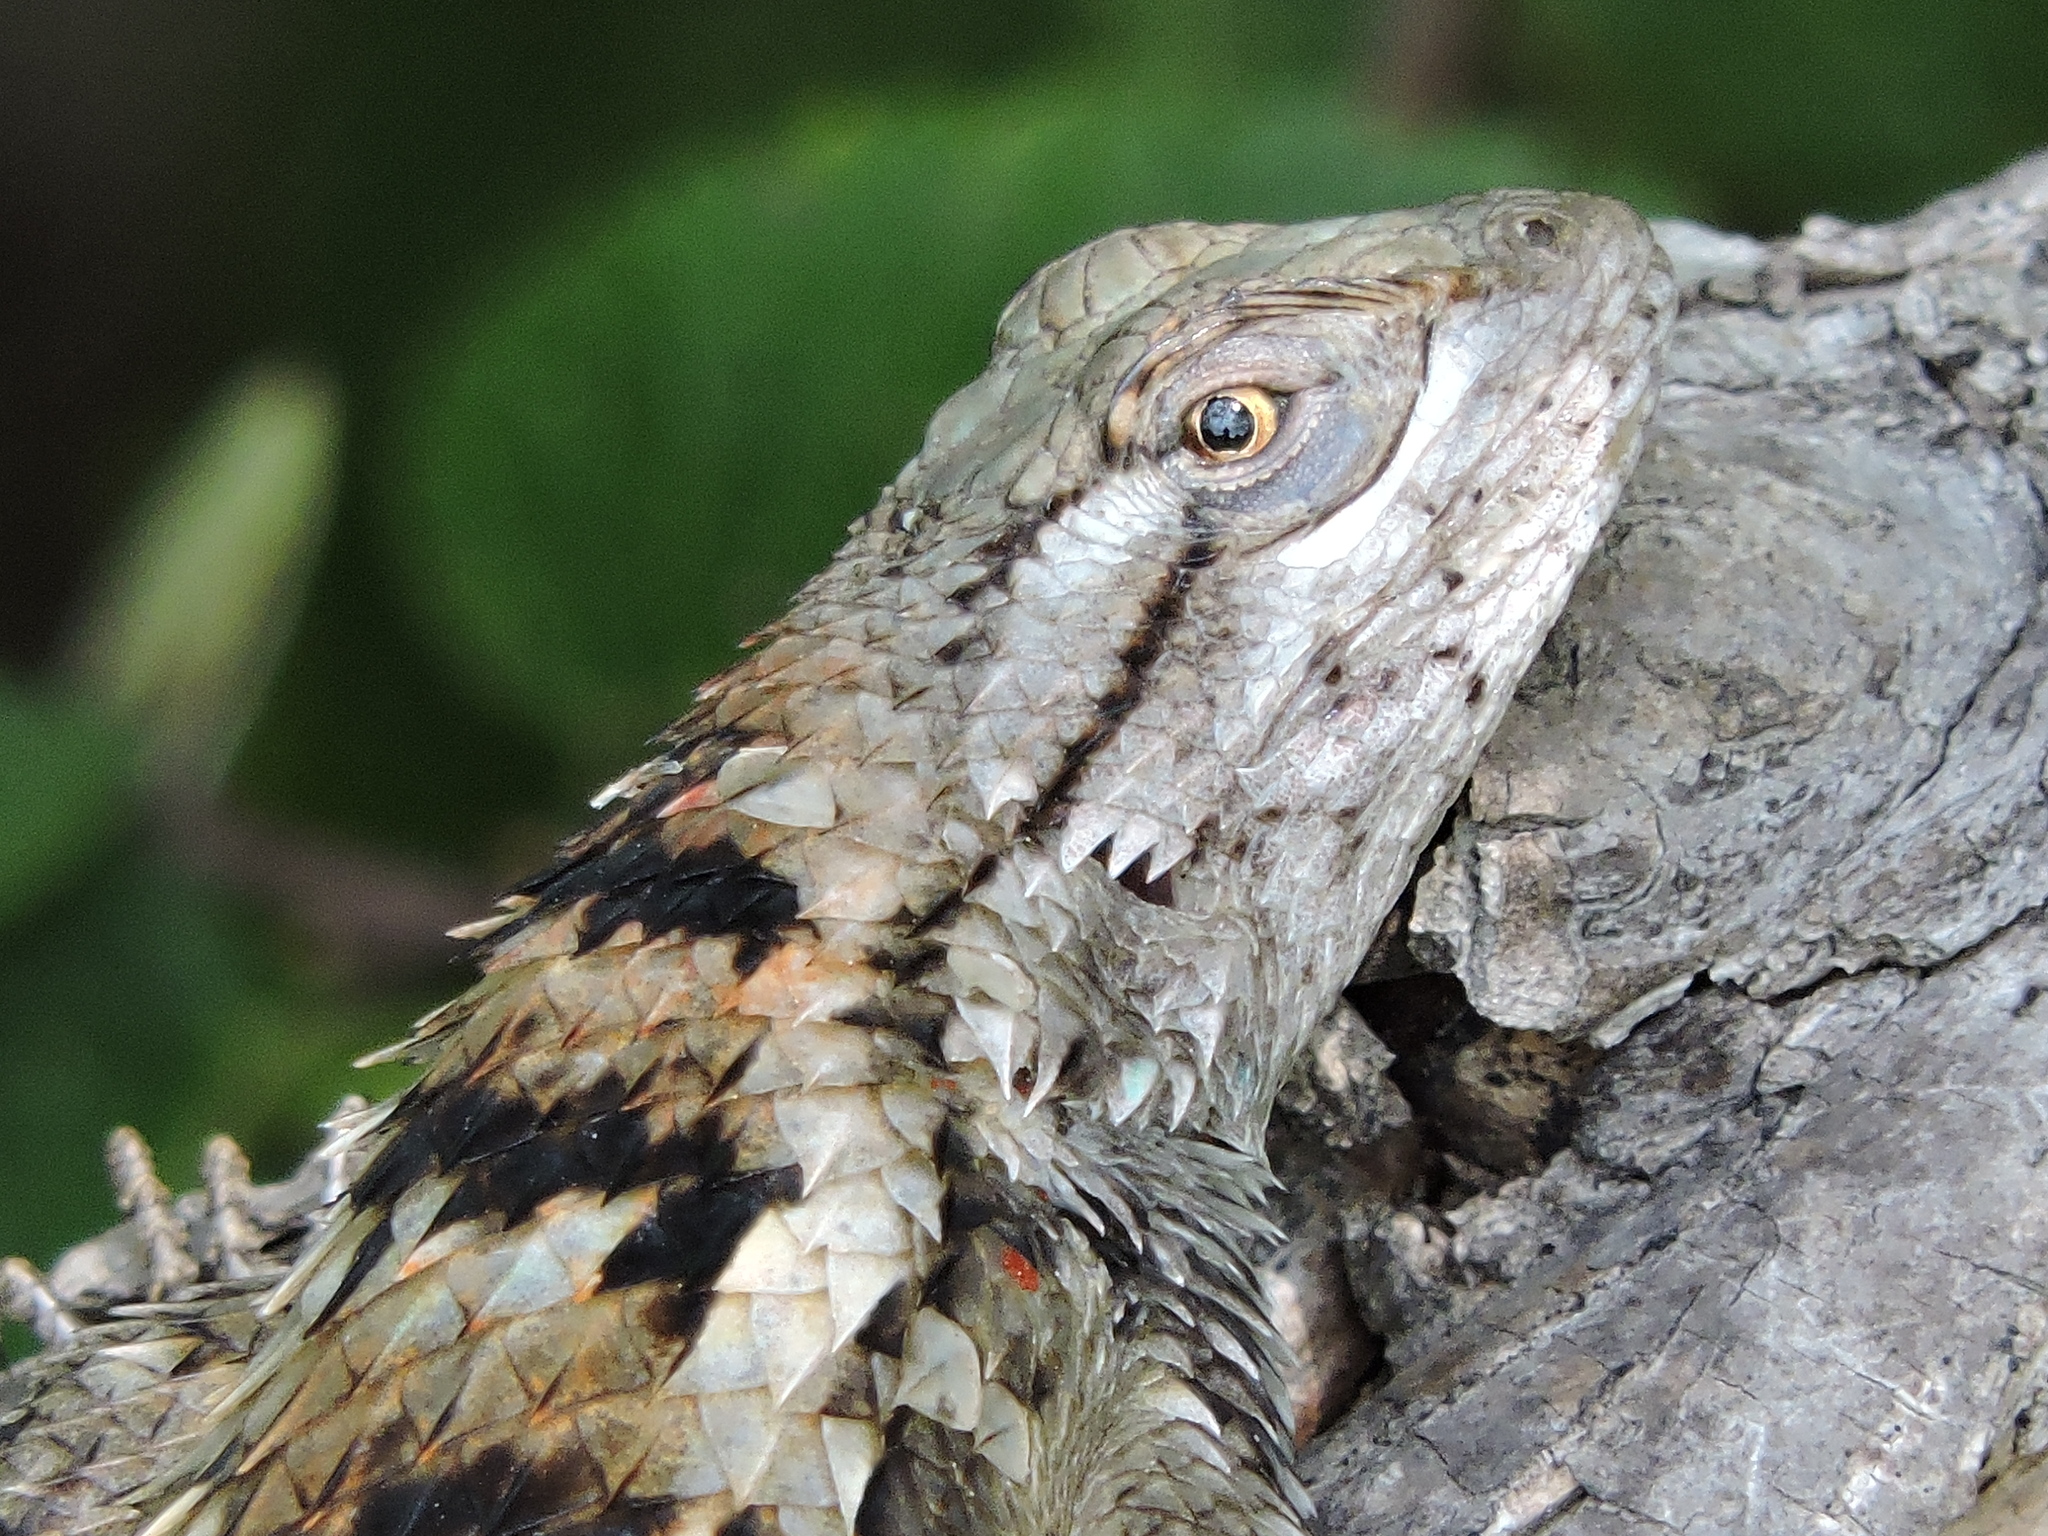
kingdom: Animalia
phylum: Chordata
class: Squamata
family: Phrynosomatidae
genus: Sceloporus
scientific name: Sceloporus olivaceus
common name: Texas spiny lizard
